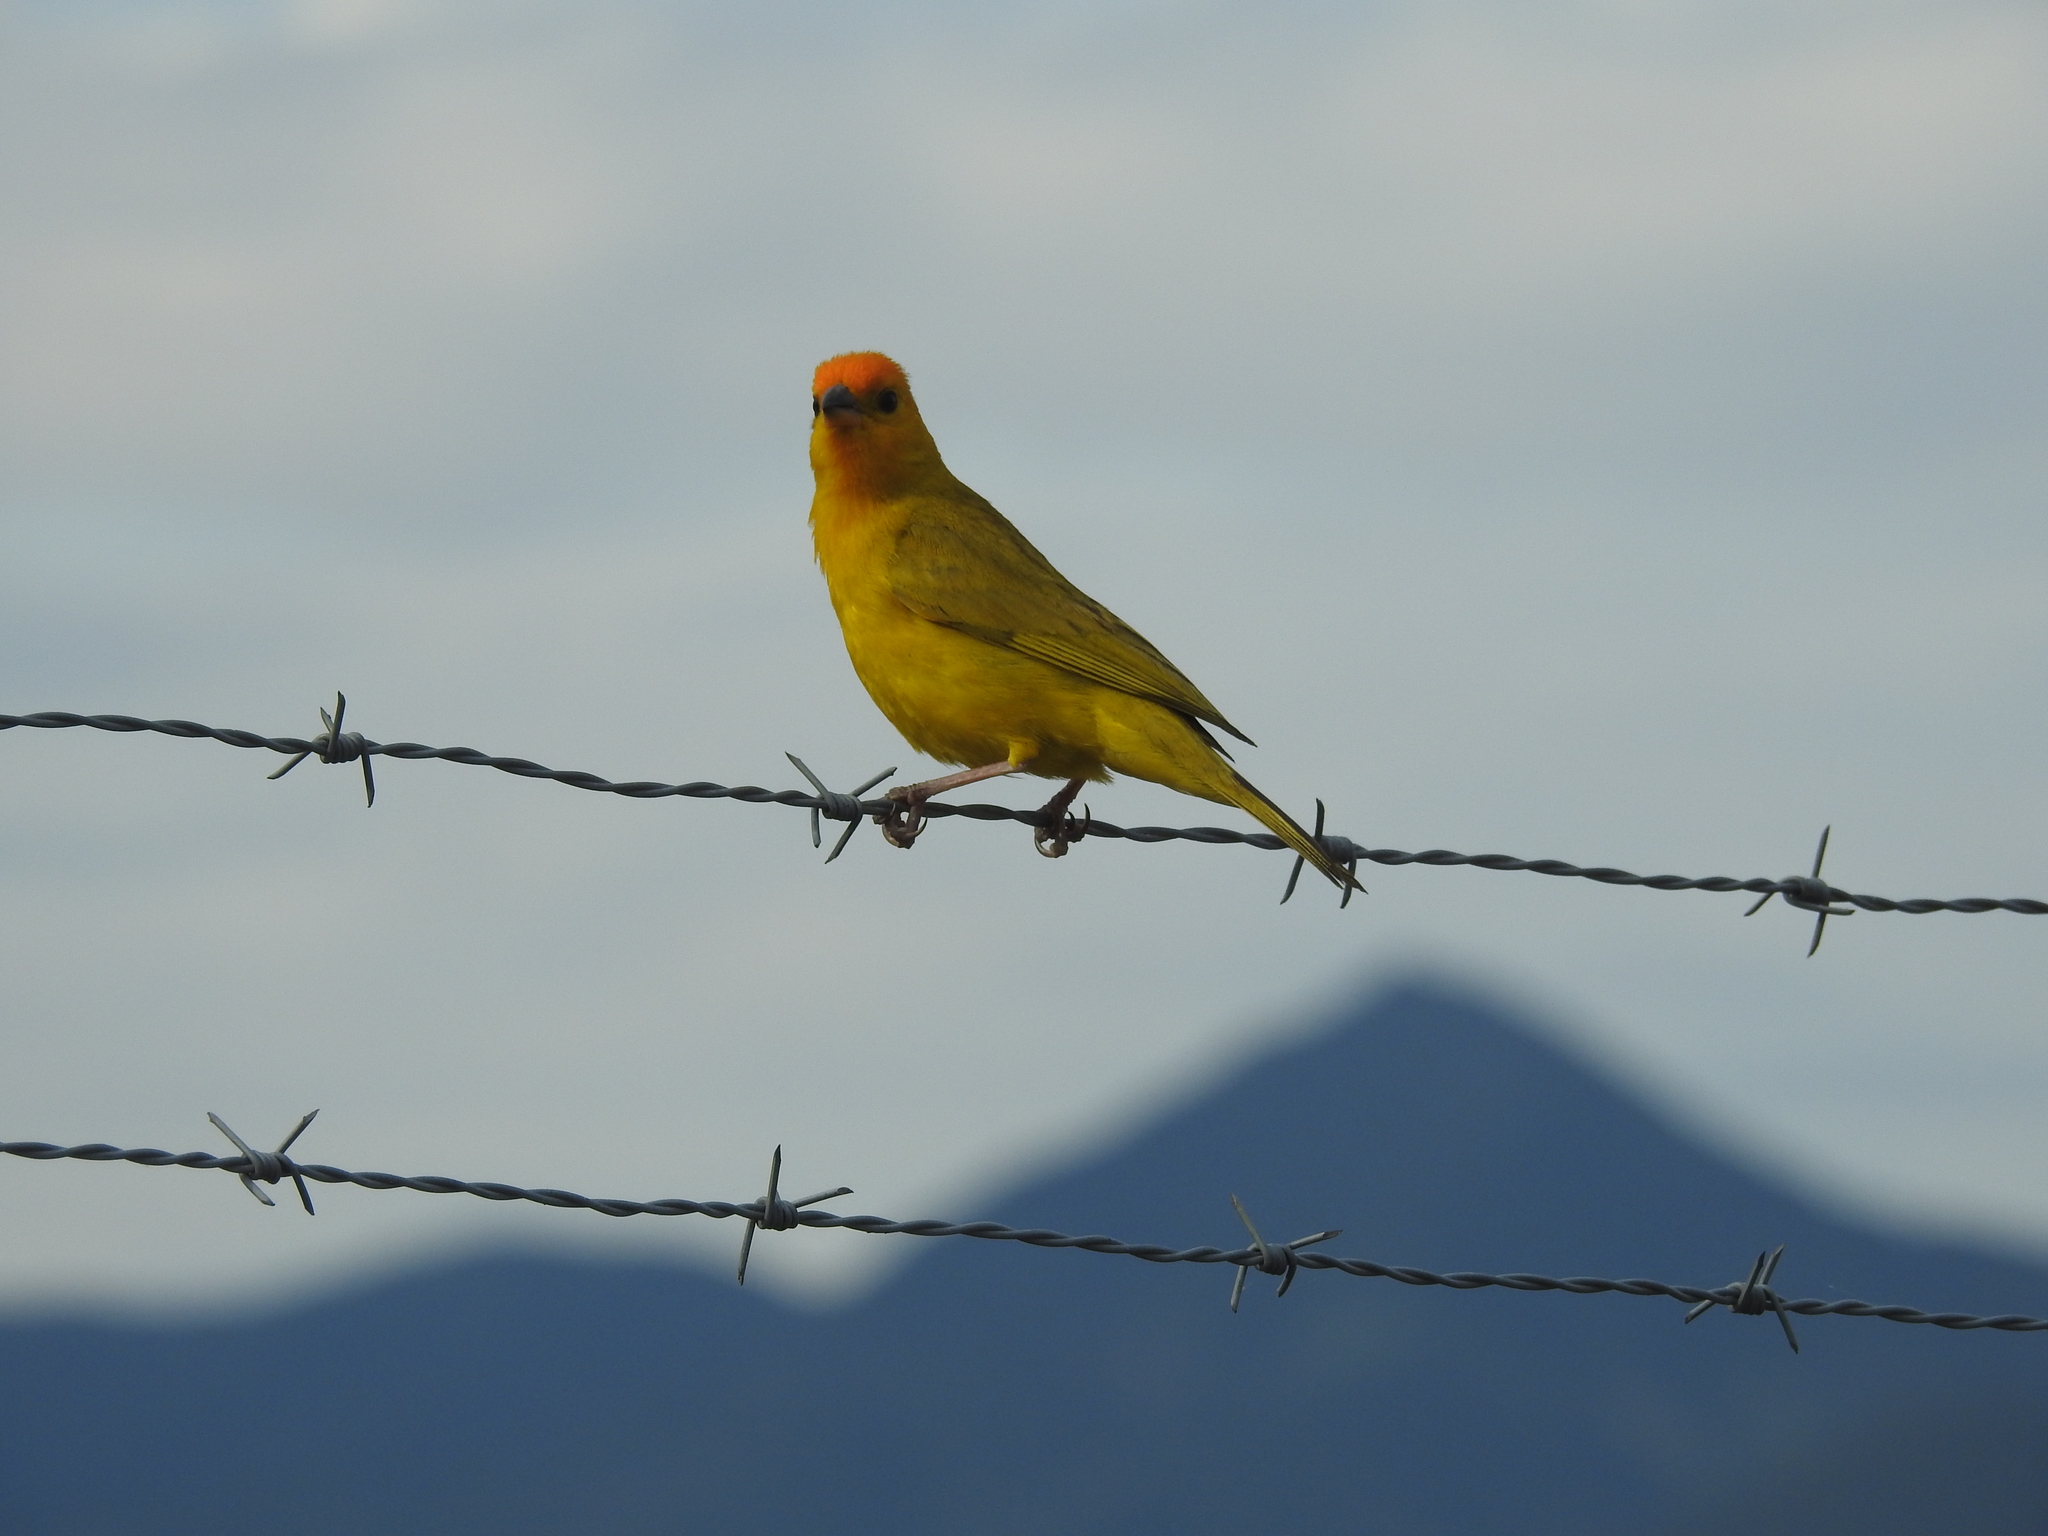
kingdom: Animalia
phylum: Chordata
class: Aves
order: Passeriformes
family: Thraupidae
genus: Sicalis
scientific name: Sicalis flaveola
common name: Saffron finch
